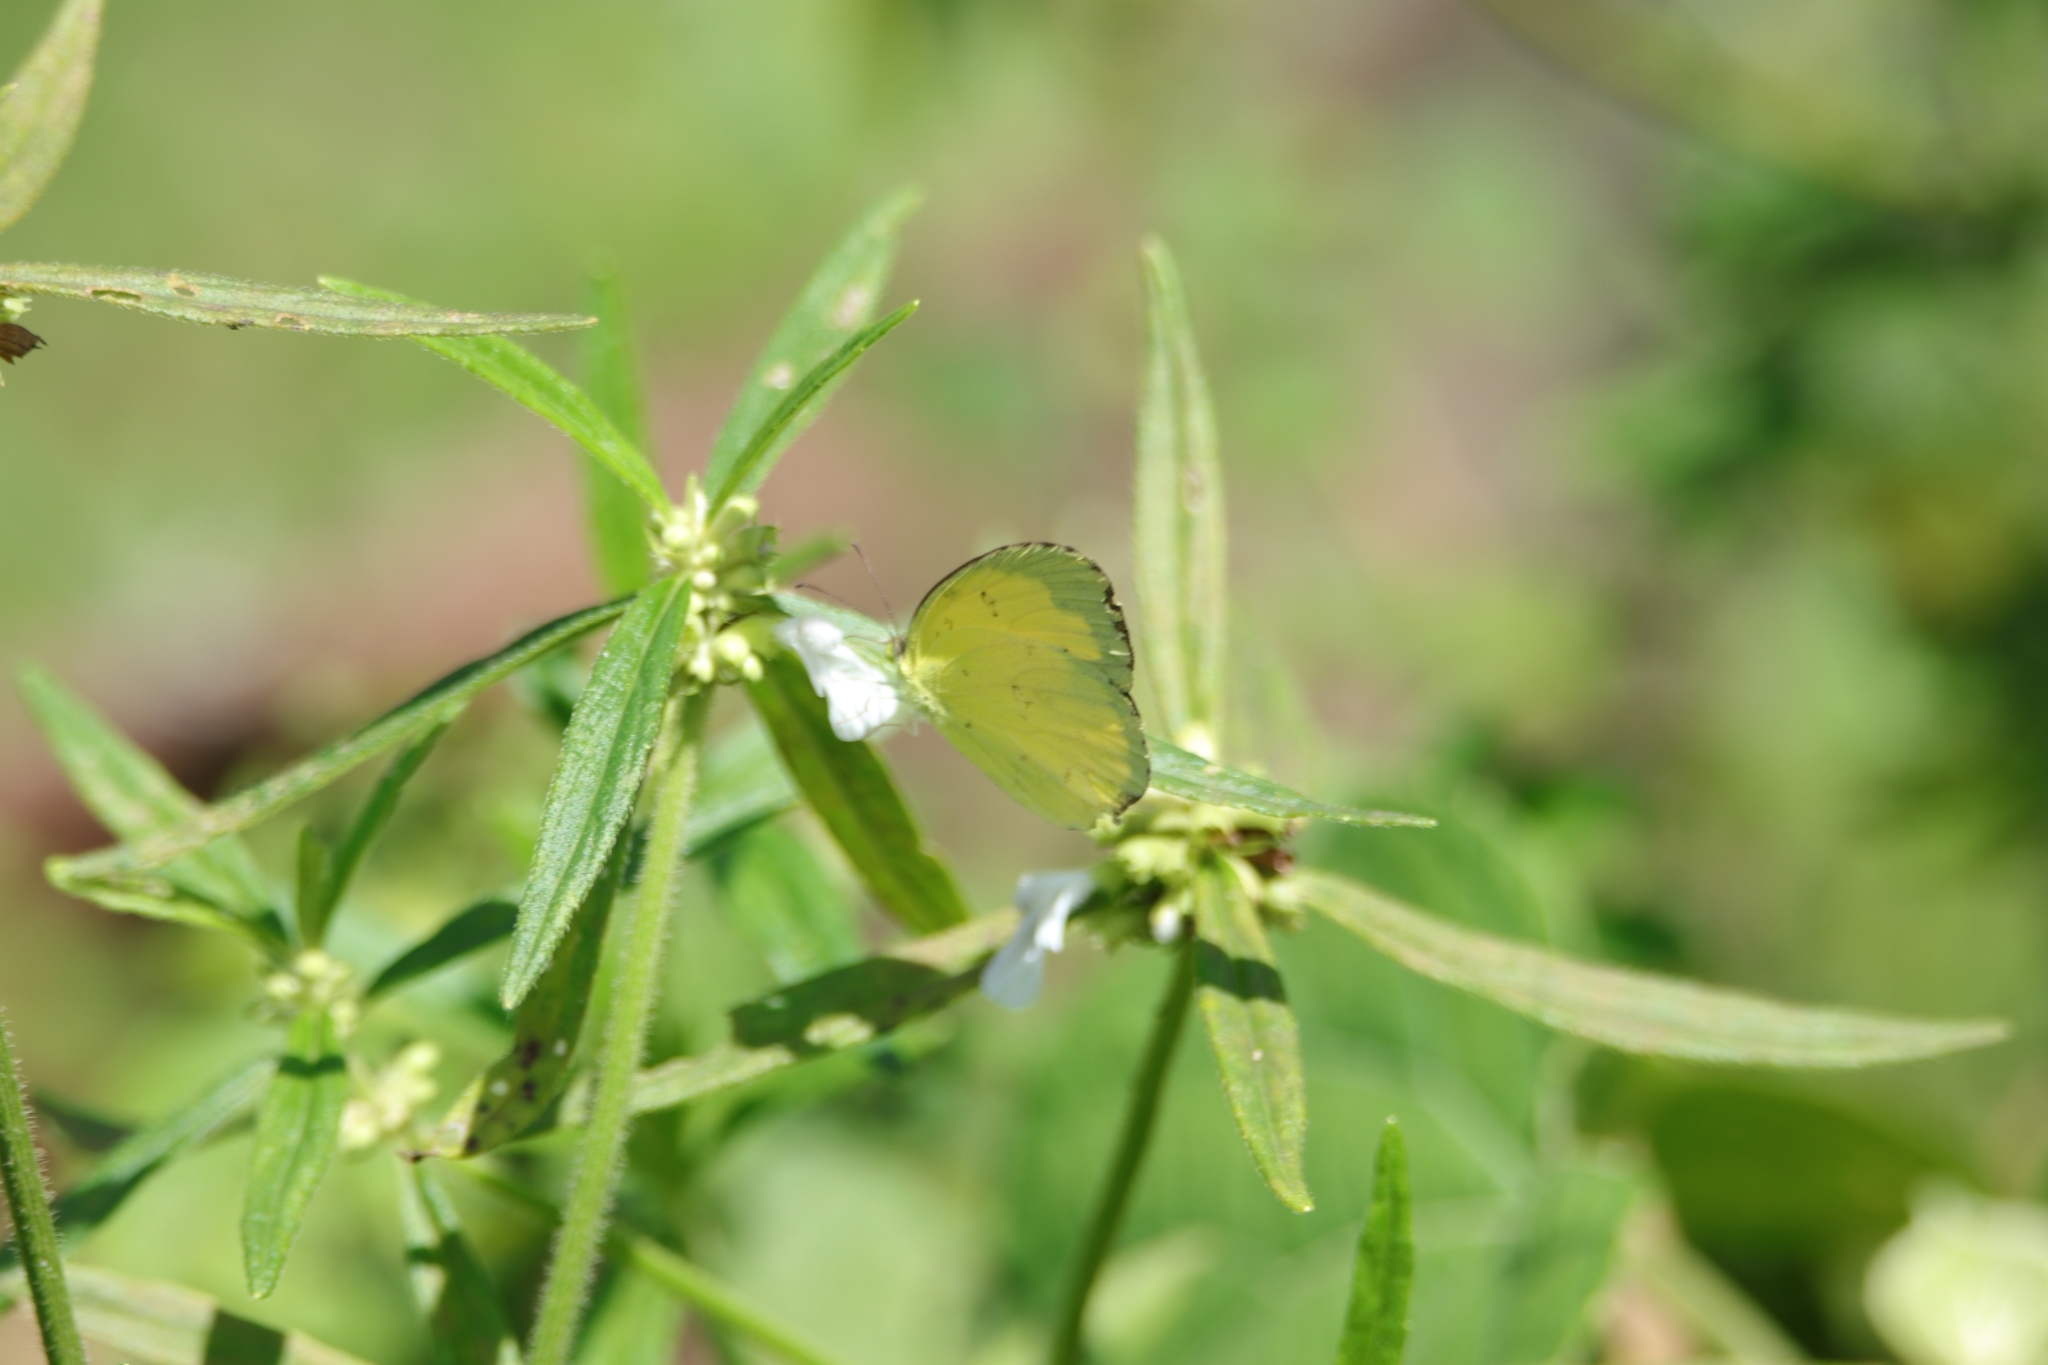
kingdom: Animalia
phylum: Arthropoda
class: Insecta
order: Lepidoptera
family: Pieridae
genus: Eurema
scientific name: Eurema hecabe
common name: Pale grass yellow
